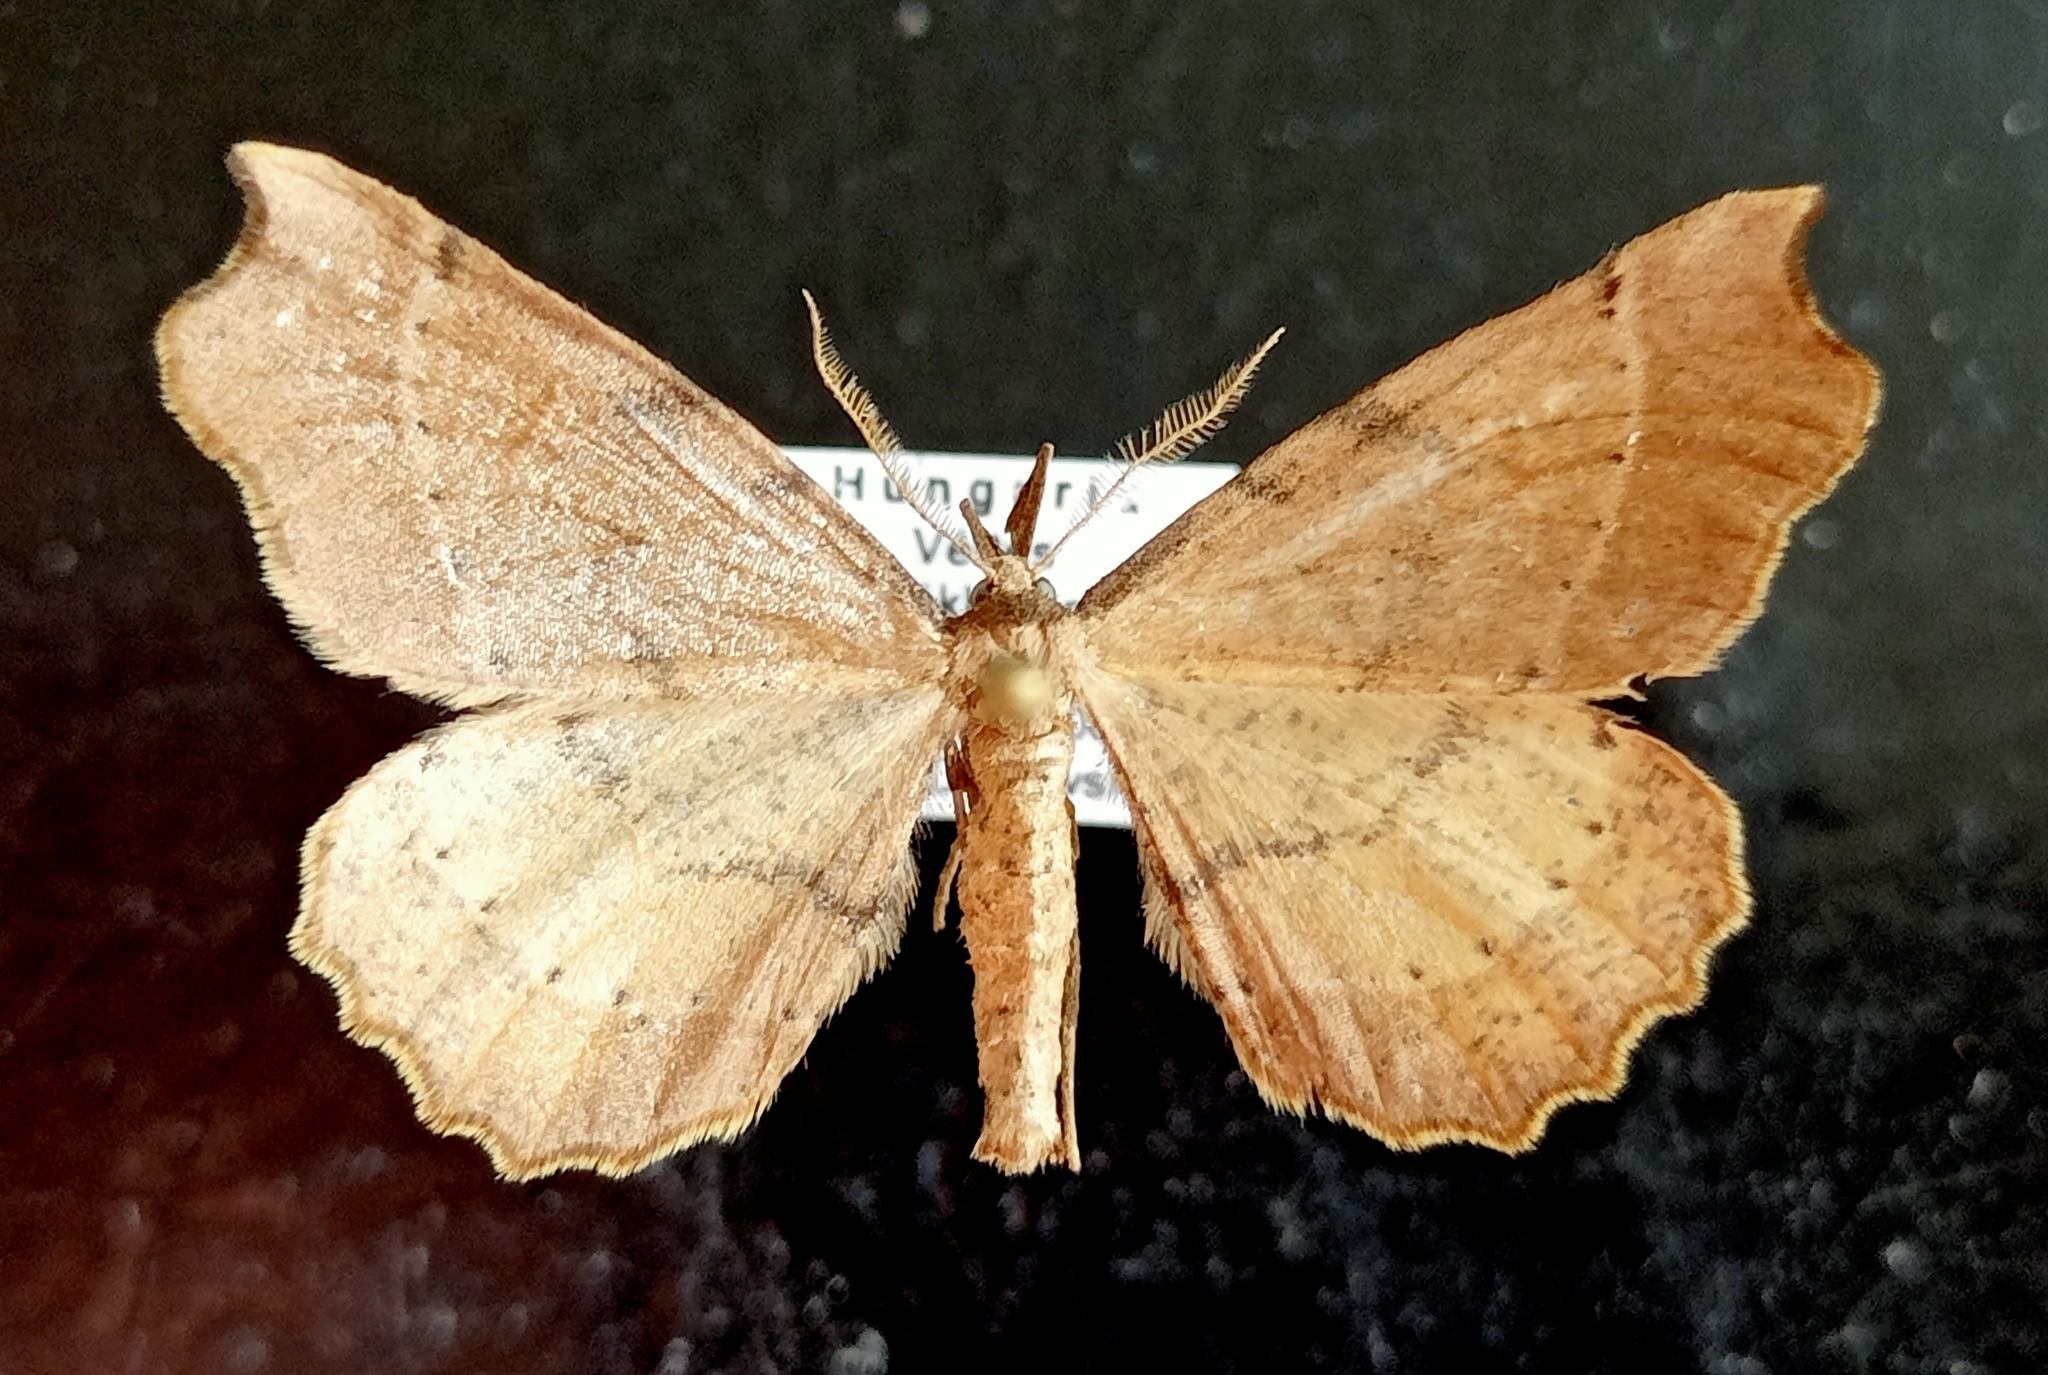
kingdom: Animalia
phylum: Arthropoda
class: Insecta
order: Lepidoptera
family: Geometridae
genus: Artiora
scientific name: Artiora evonymaria
